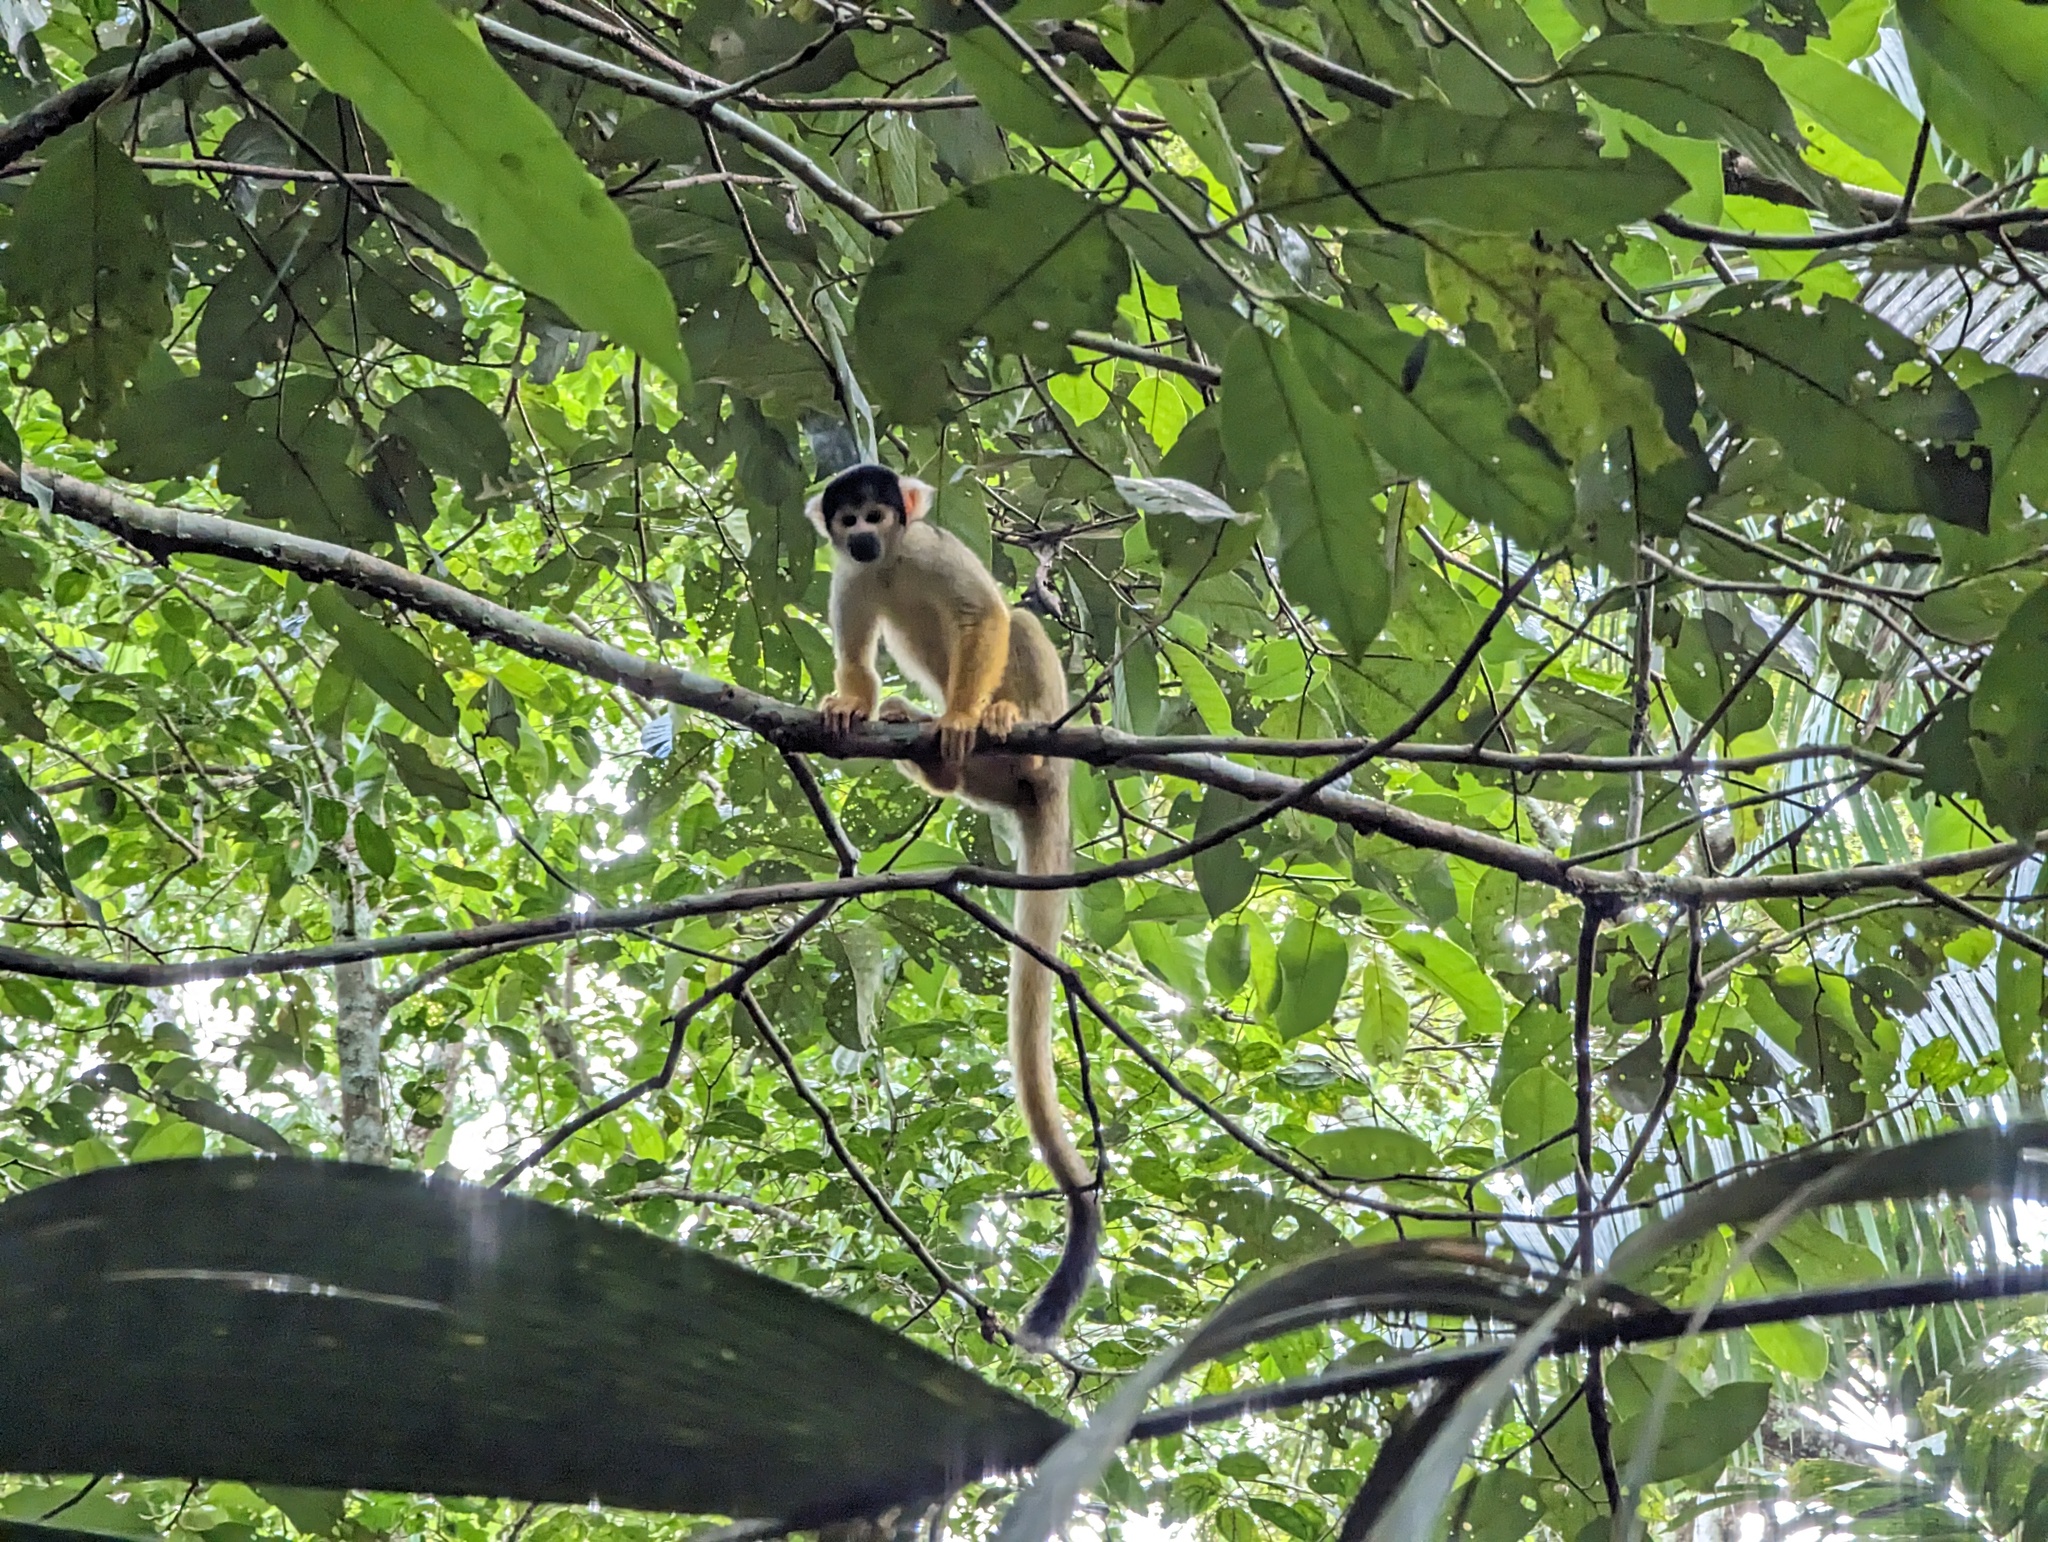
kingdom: Animalia
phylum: Chordata
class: Mammalia
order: Primates
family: Cebidae
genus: Saimiri
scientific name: Saimiri boliviensis
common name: Black-capped squirrel monkey
